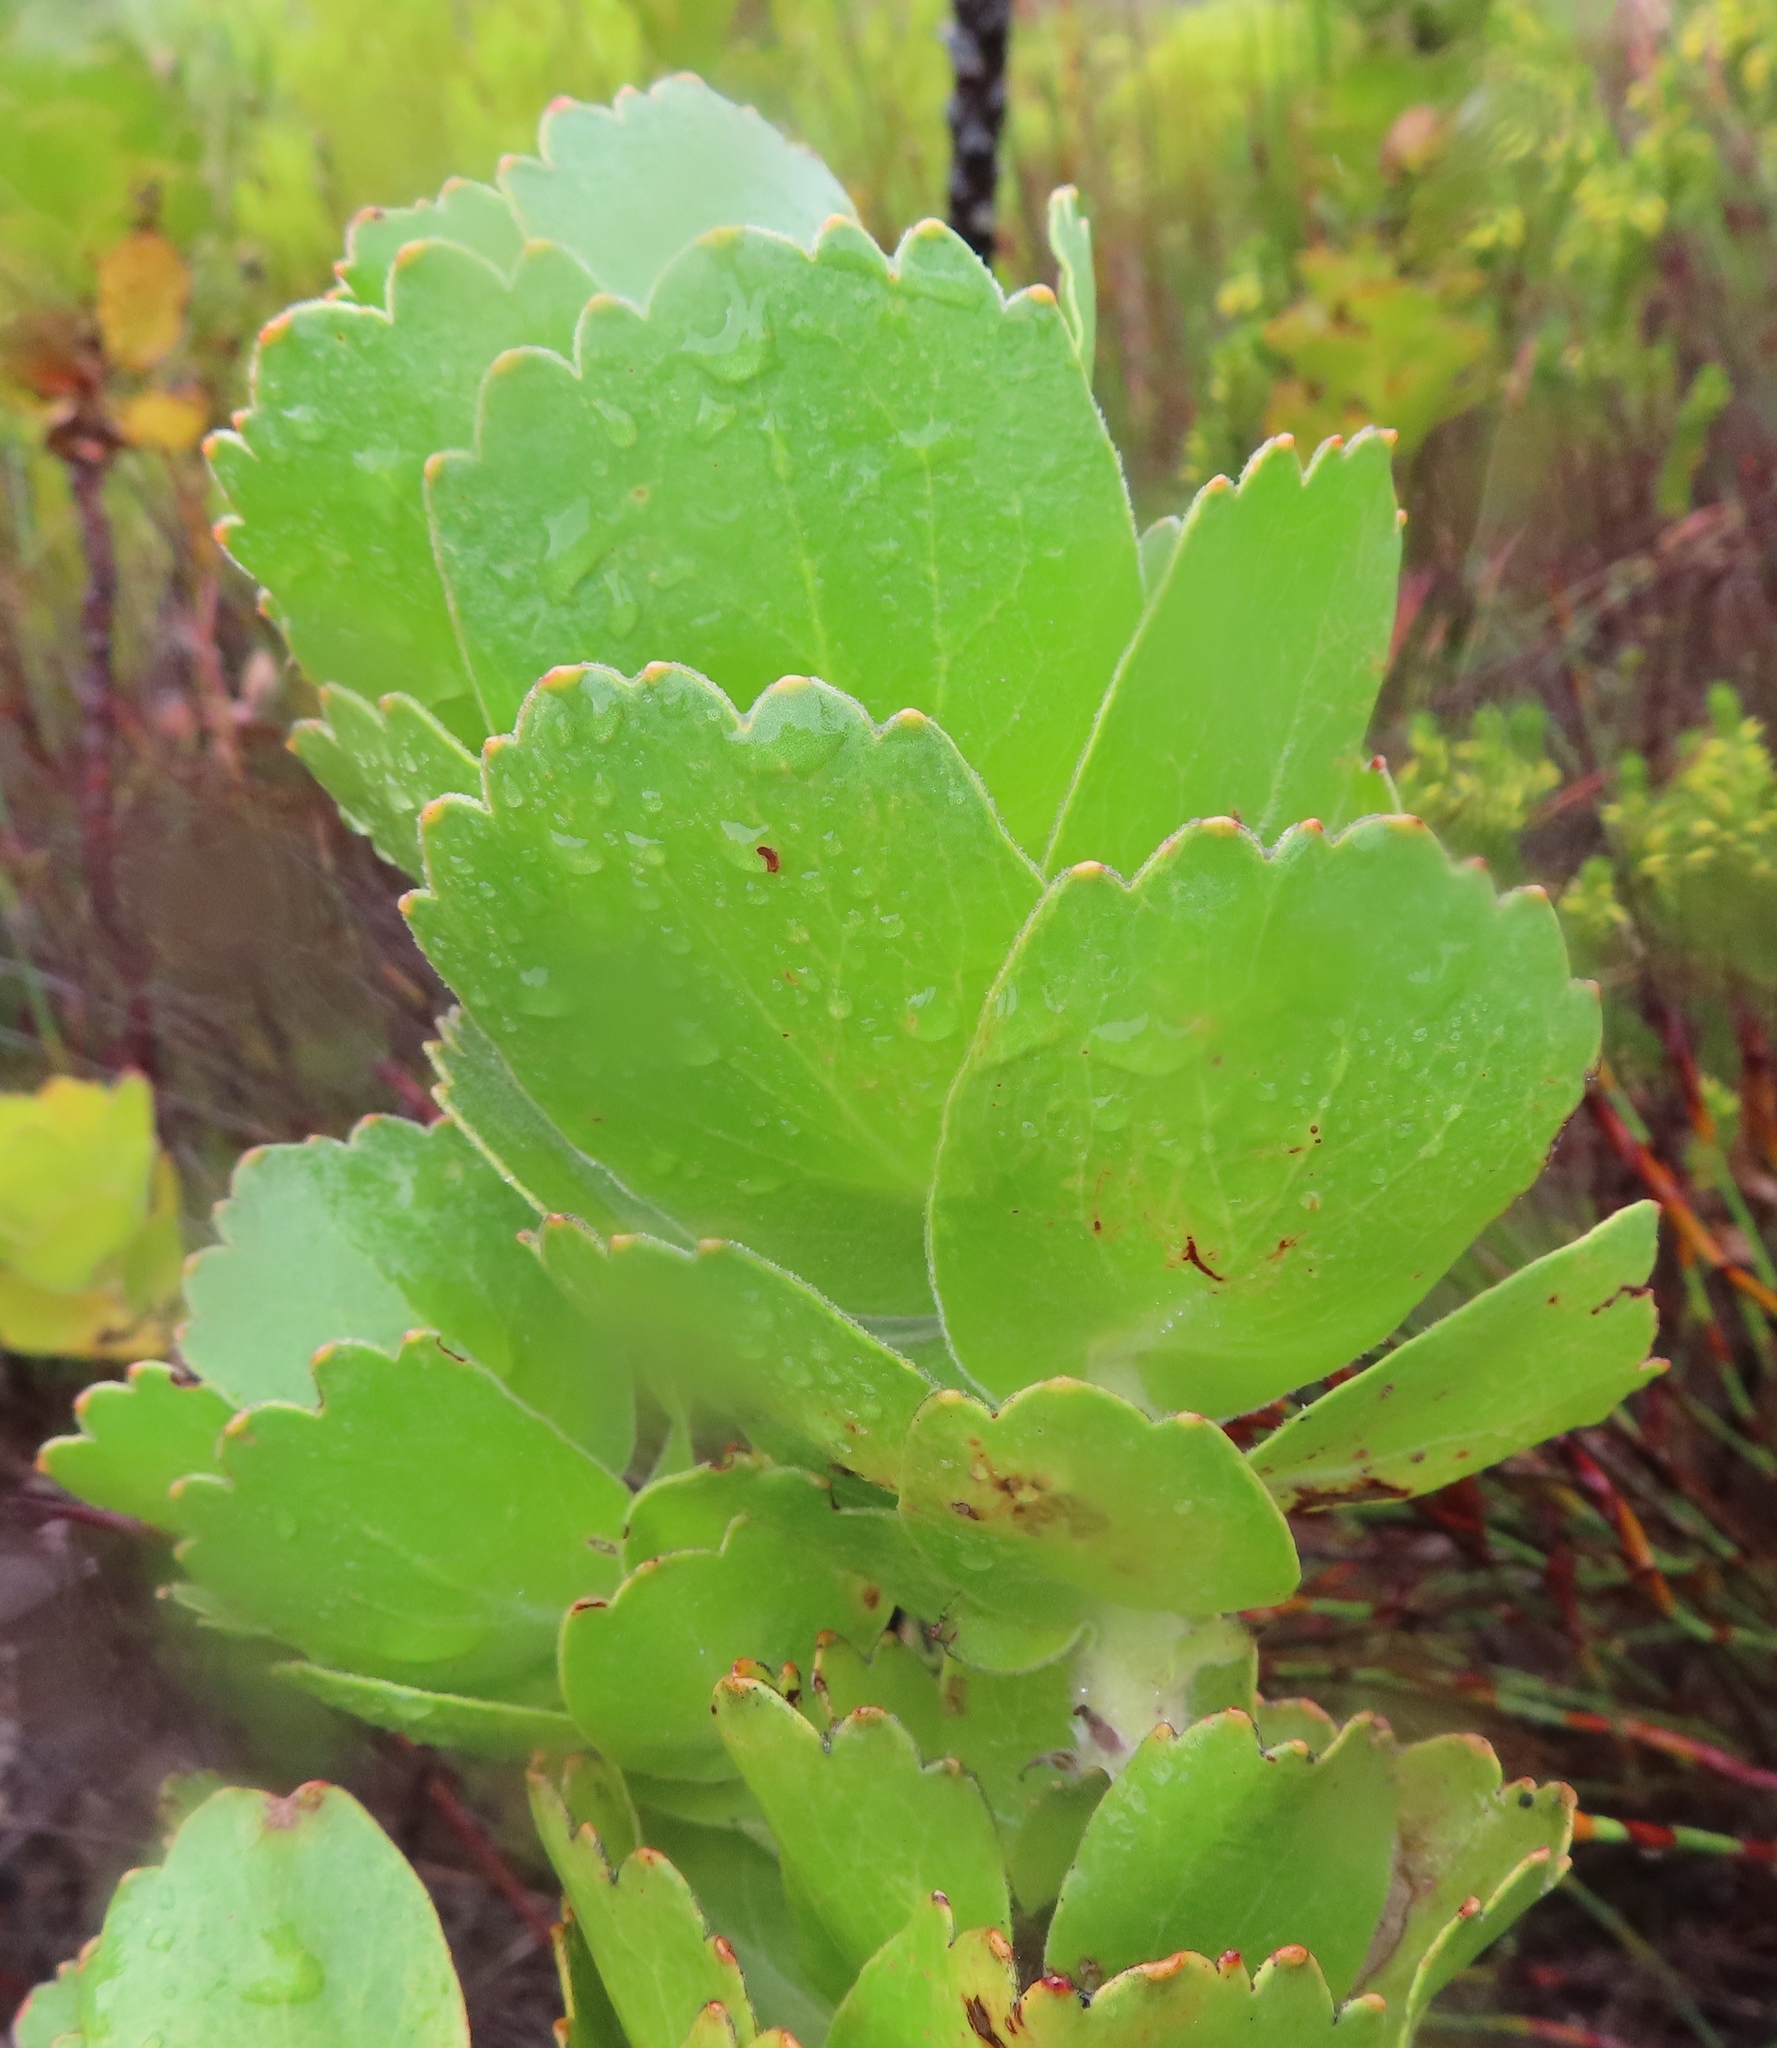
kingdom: Plantae
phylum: Tracheophyta
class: Magnoliopsida
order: Proteales
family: Proteaceae
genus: Leucospermum
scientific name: Leucospermum patersonii
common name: False tree pincushion
